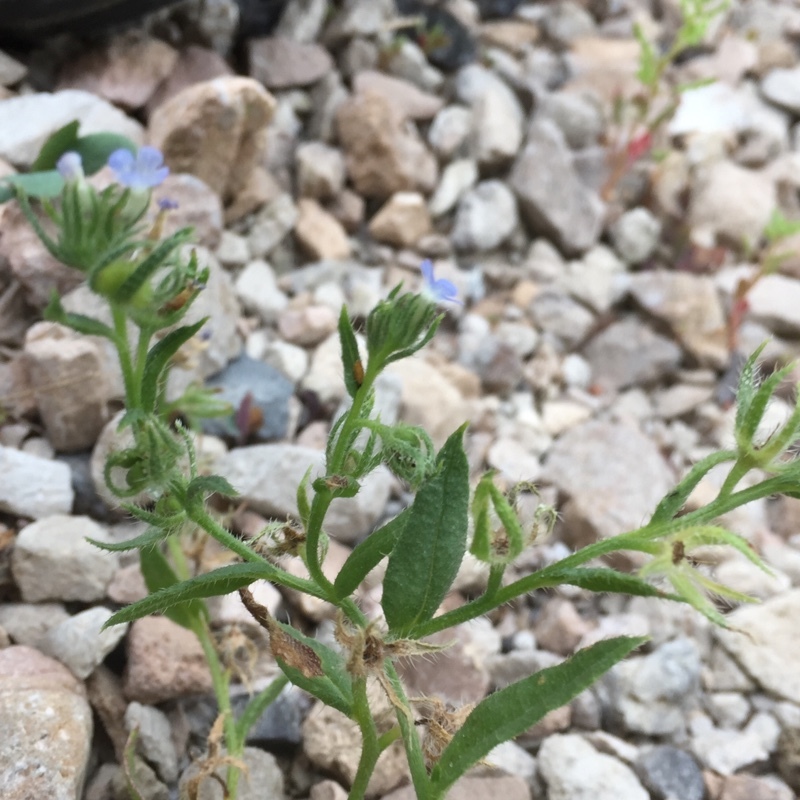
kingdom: Plantae
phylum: Tracheophyta
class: Magnoliopsida
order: Boraginales
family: Boraginaceae
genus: Lappula
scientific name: Lappula squarrosa
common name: European stickseed
